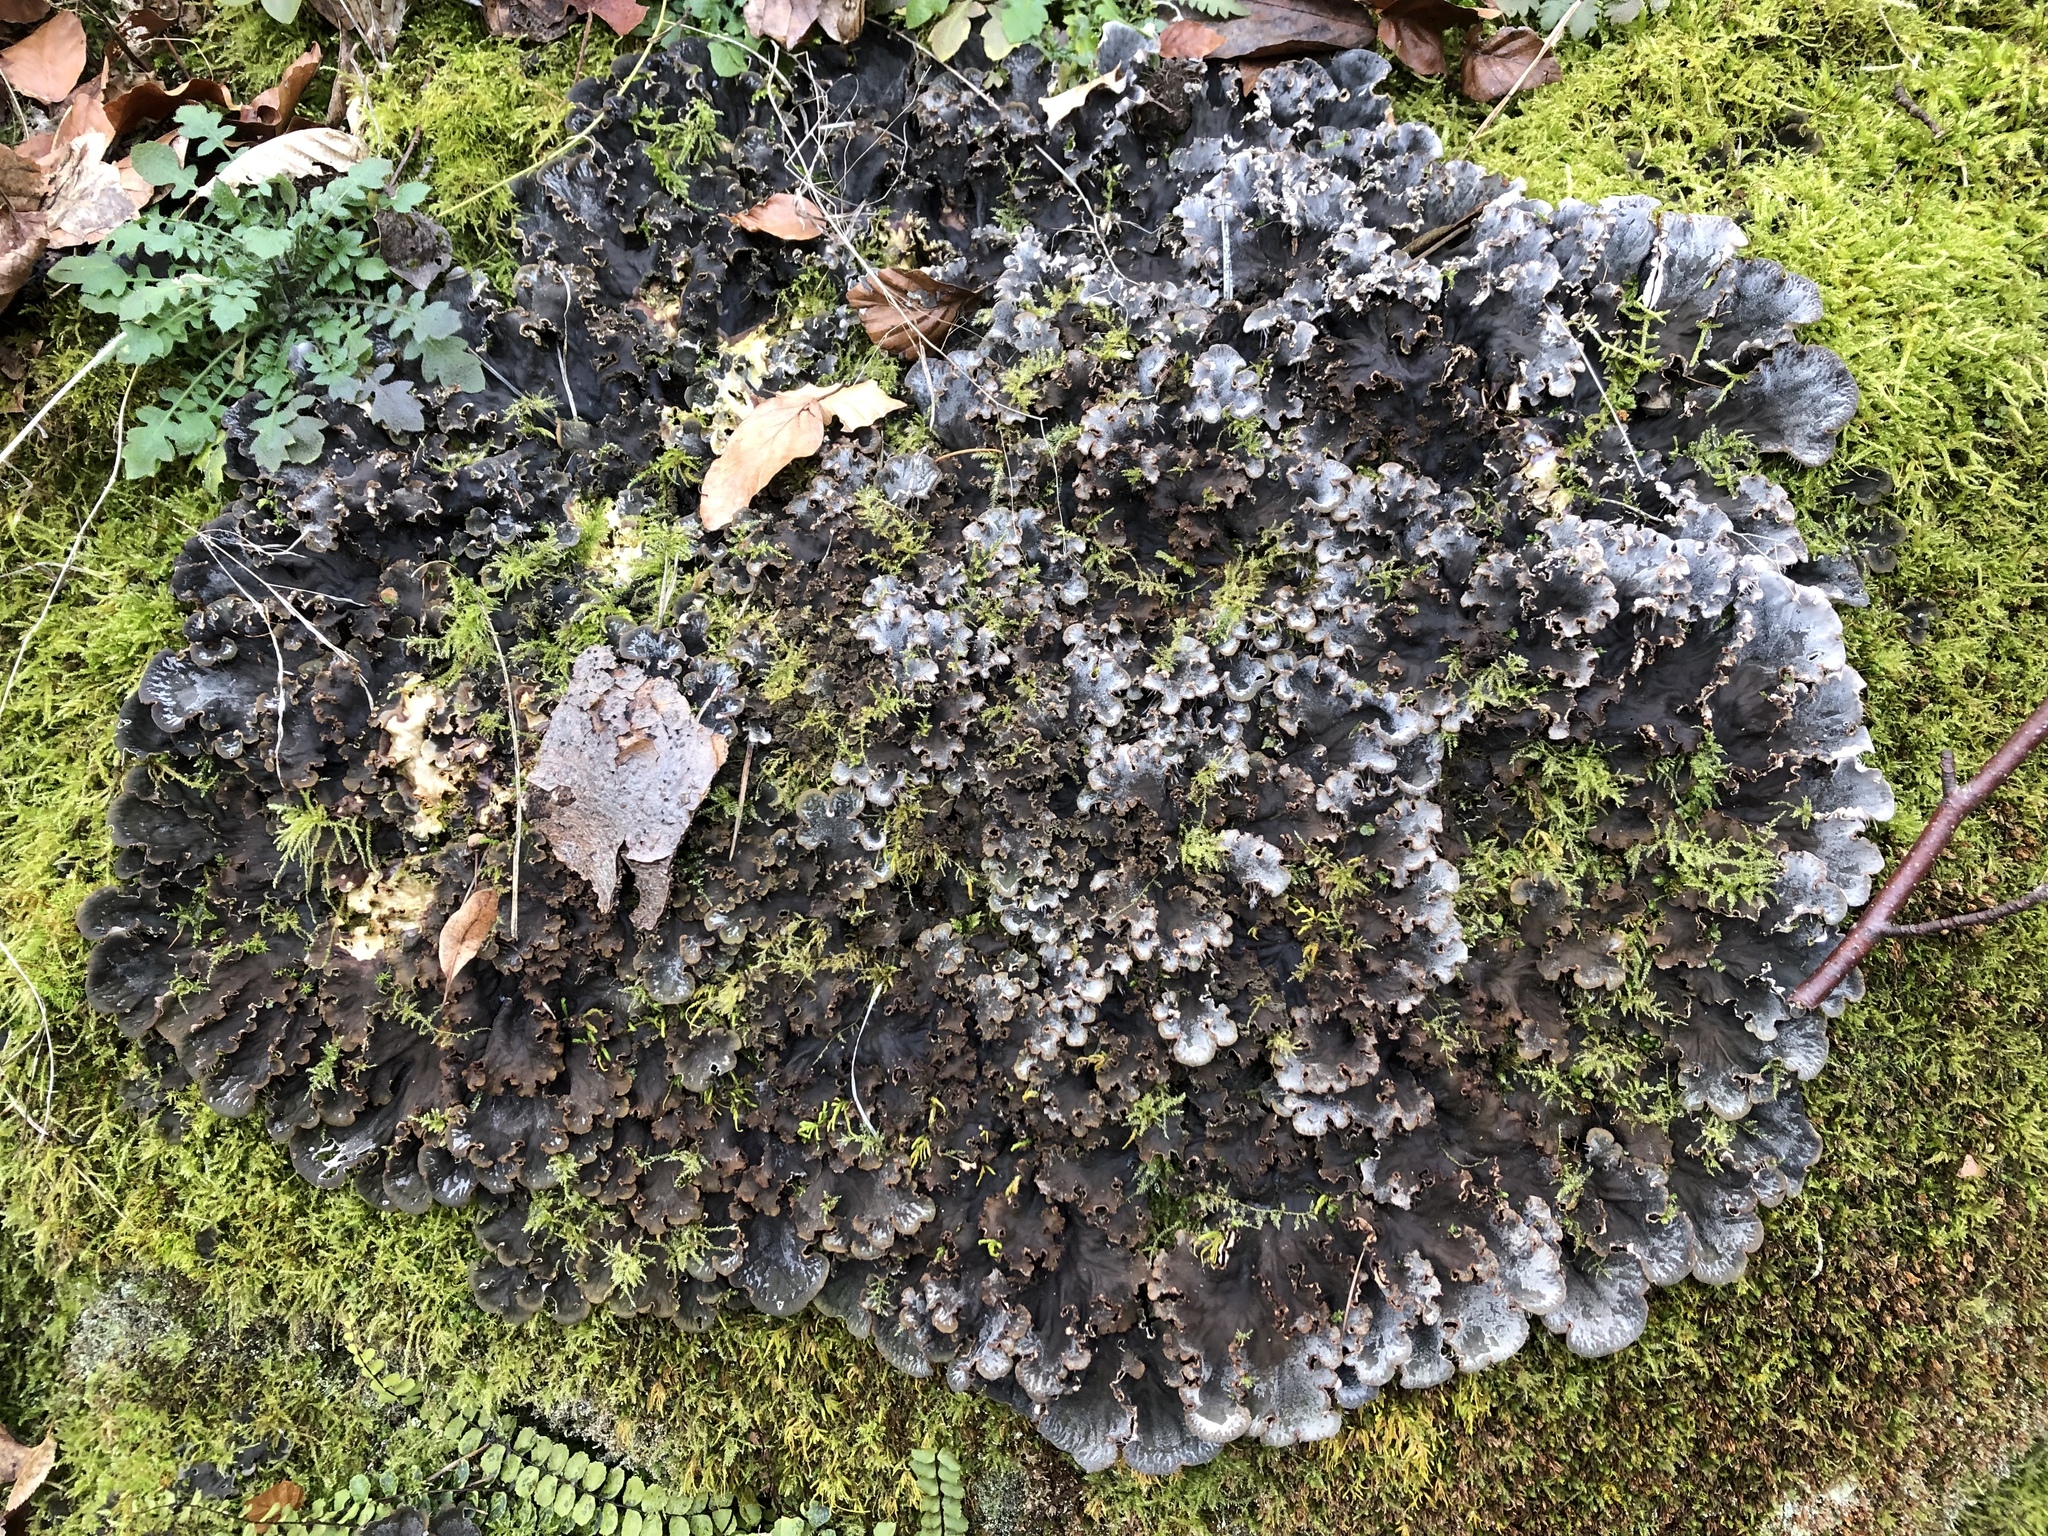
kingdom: Fungi
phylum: Ascomycota
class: Lecanoromycetes
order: Peltigerales
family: Peltigeraceae
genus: Peltigera
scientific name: Peltigera praetextata
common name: Scaly dog-lichen
